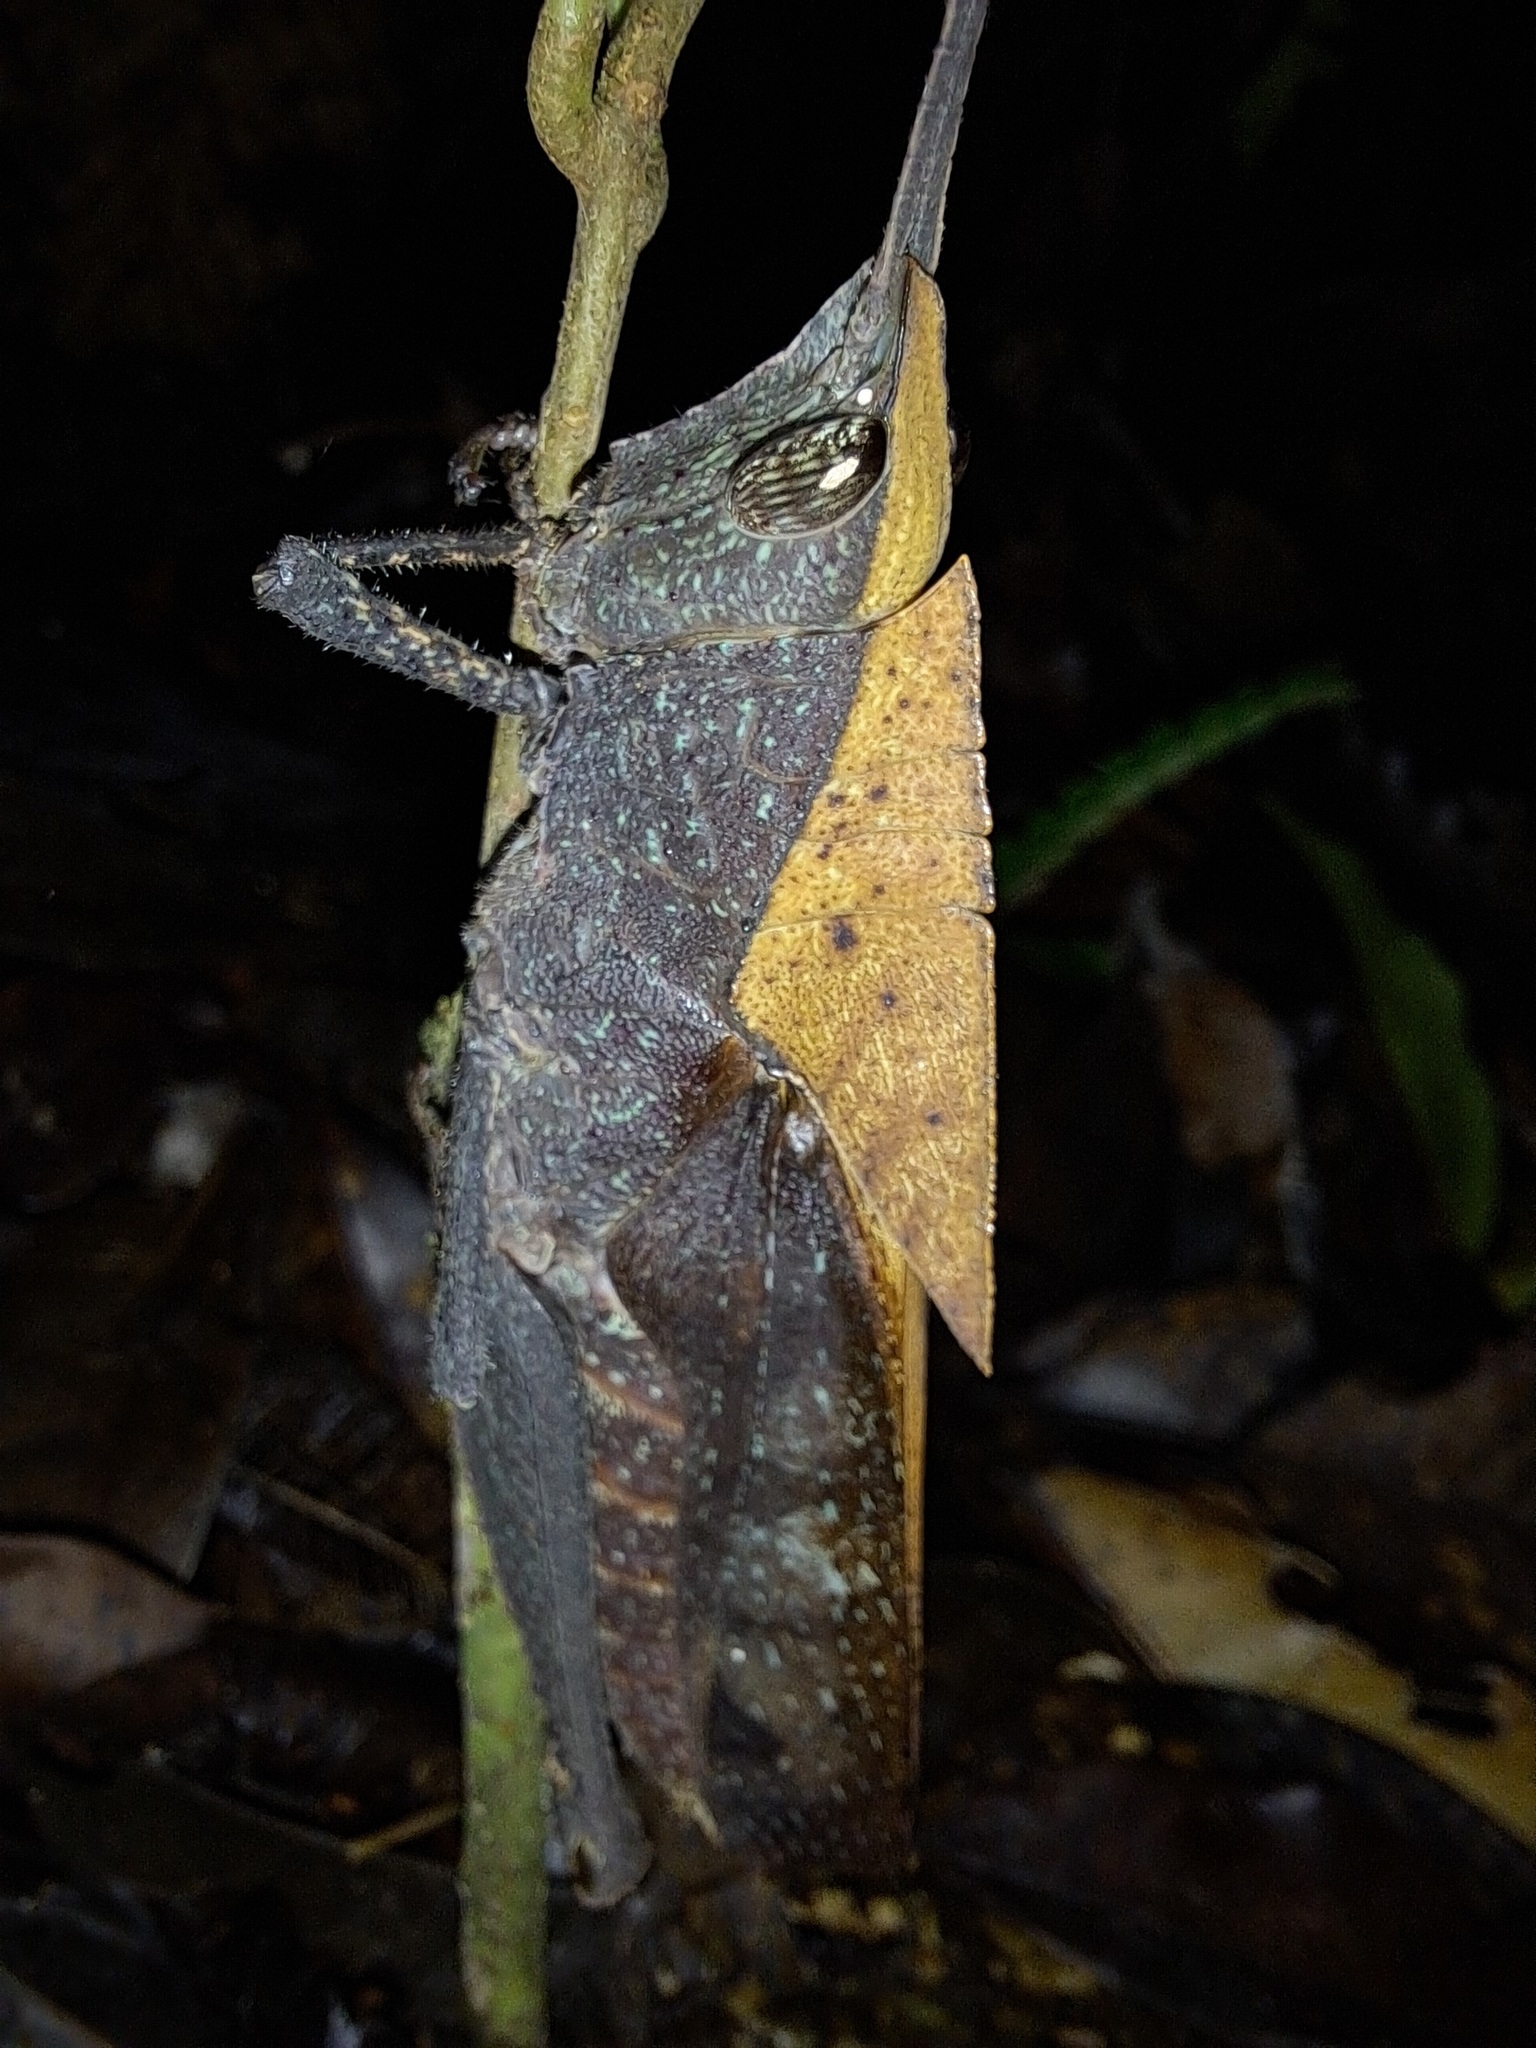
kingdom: Animalia
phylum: Arthropoda
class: Insecta
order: Orthoptera
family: Romaleidae
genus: Colpolopha
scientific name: Colpolopha latipennis
